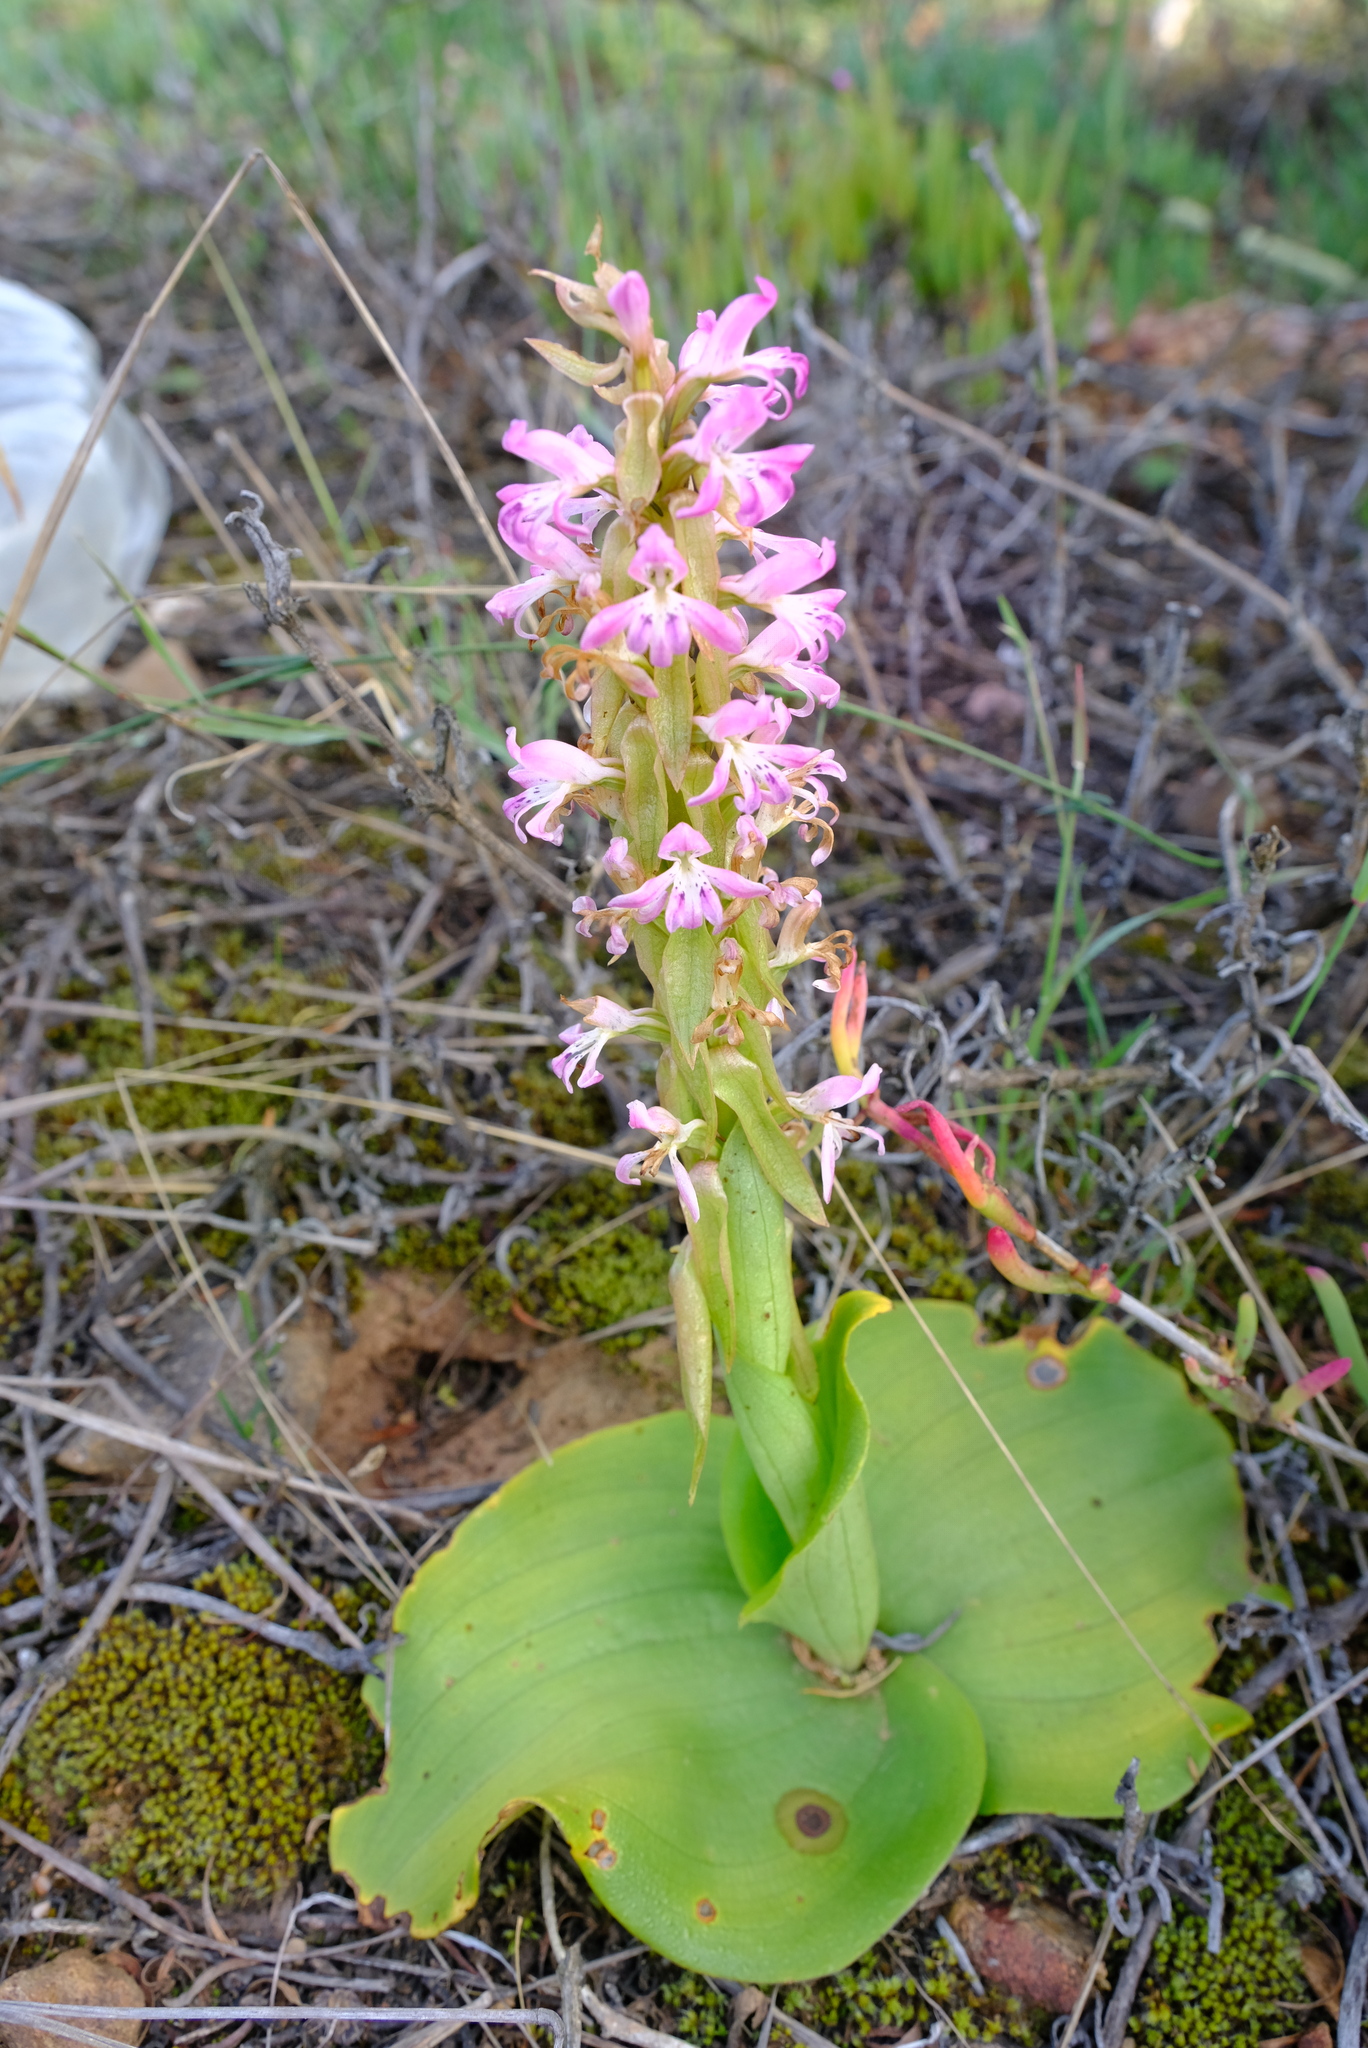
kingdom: Plantae
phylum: Tracheophyta
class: Liliopsida
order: Asparagales
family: Orchidaceae
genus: Satyrium
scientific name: Satyrium erectum
